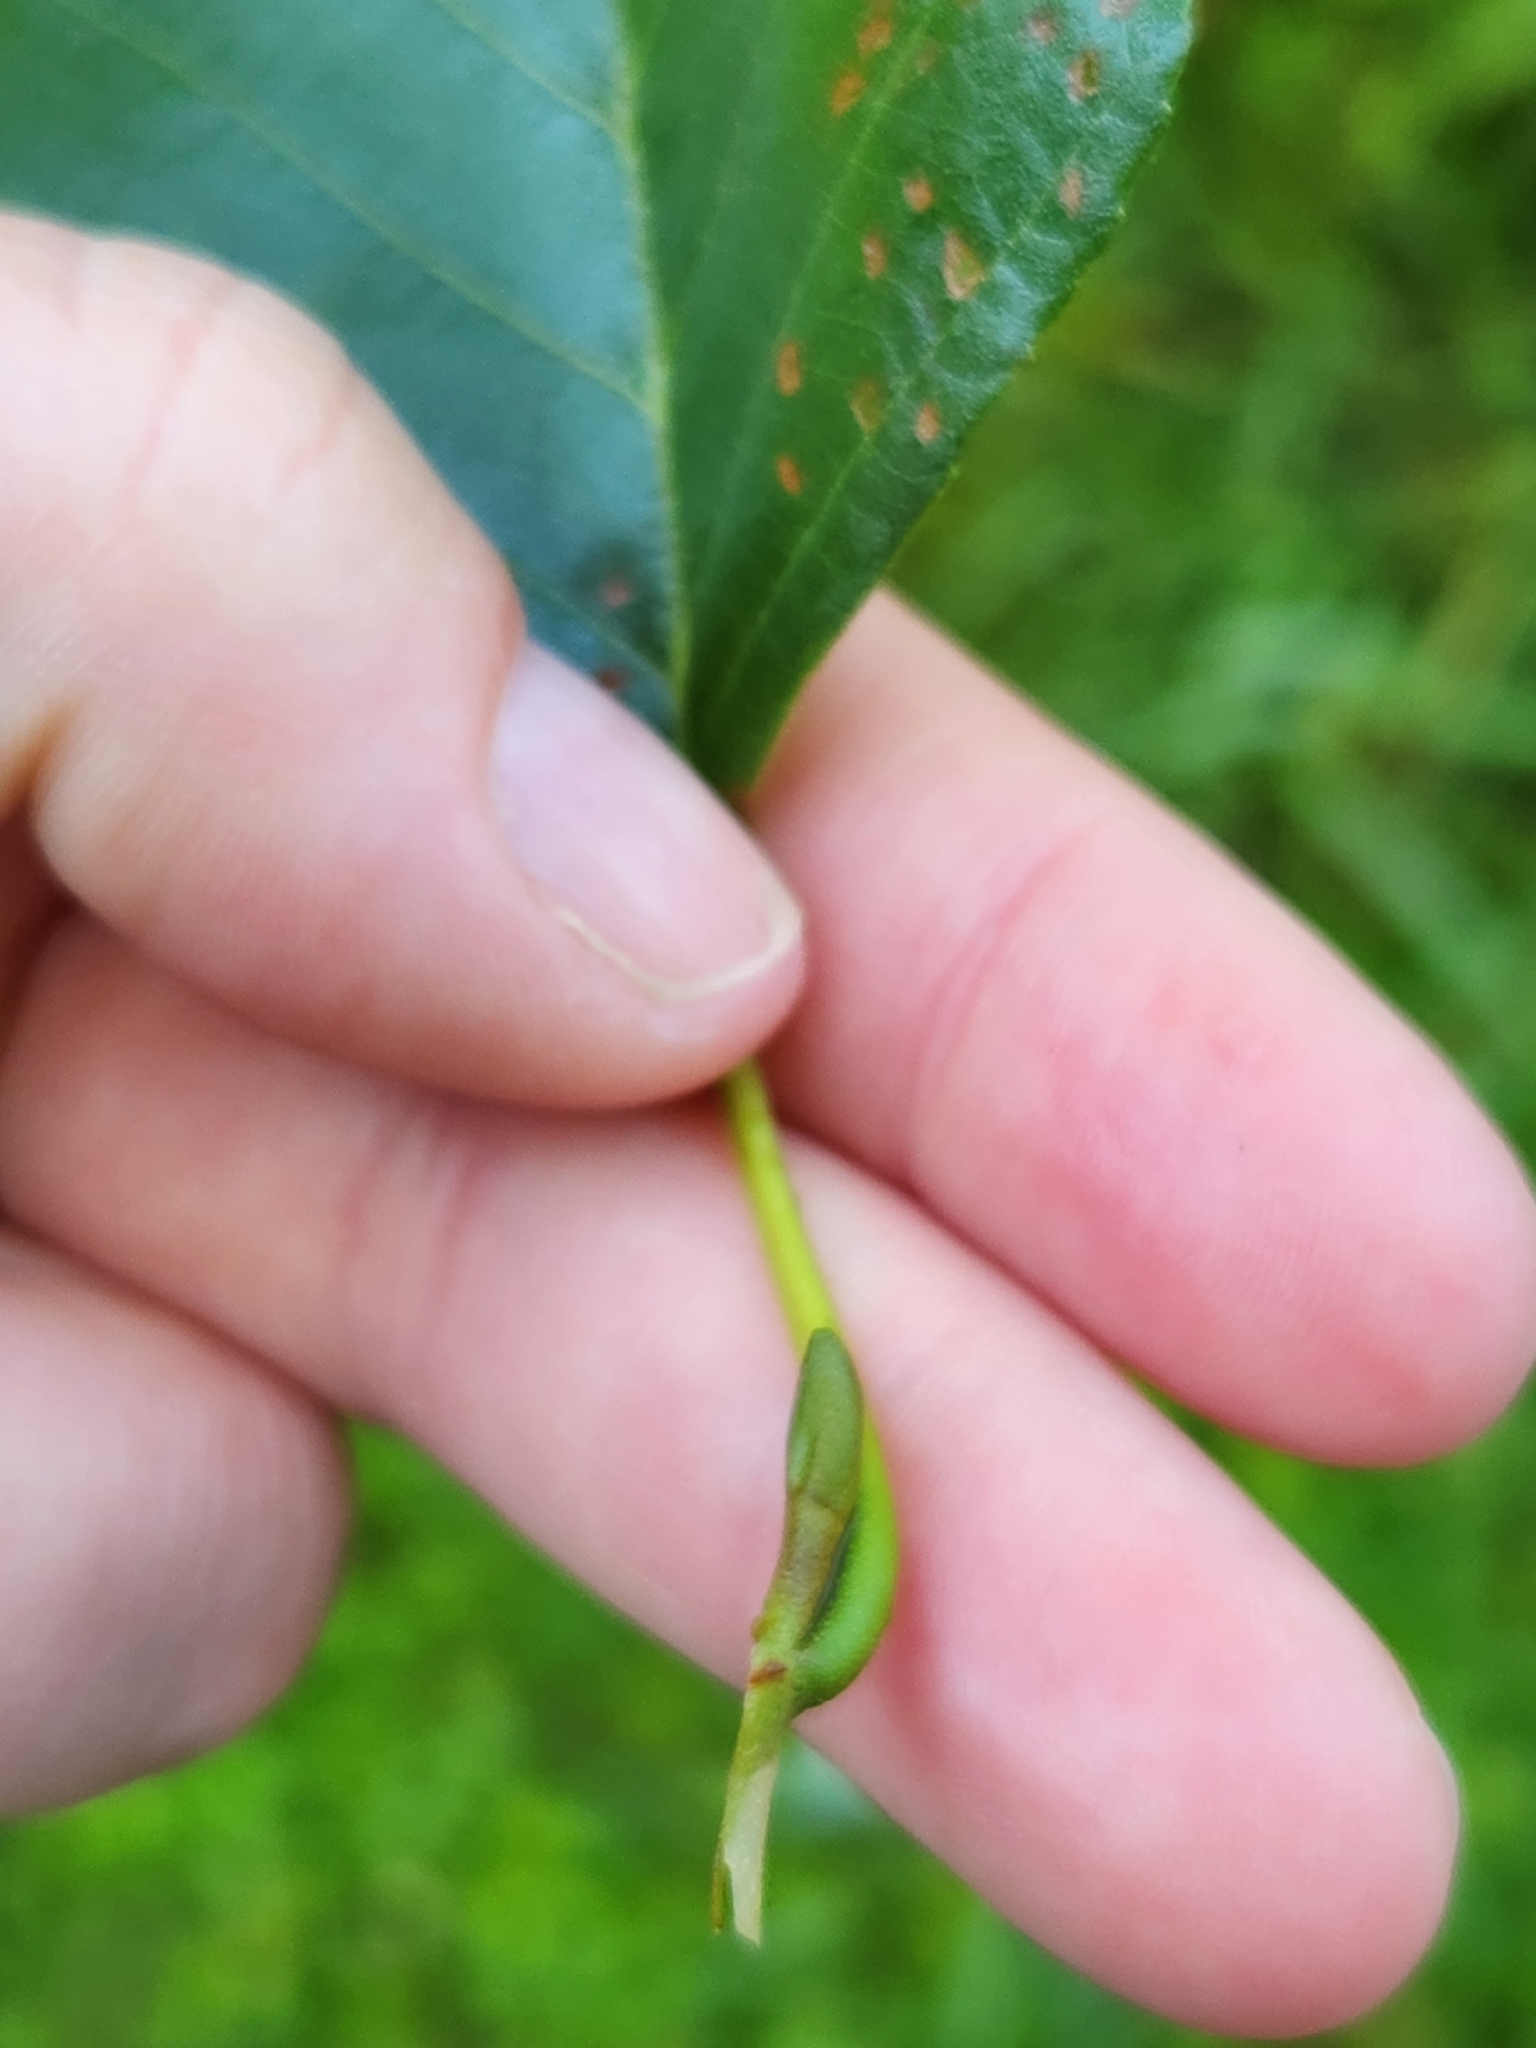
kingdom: Plantae
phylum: Tracheophyta
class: Magnoliopsida
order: Fagales
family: Betulaceae
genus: Alnus
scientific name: Alnus glutinosa
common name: Black alder
